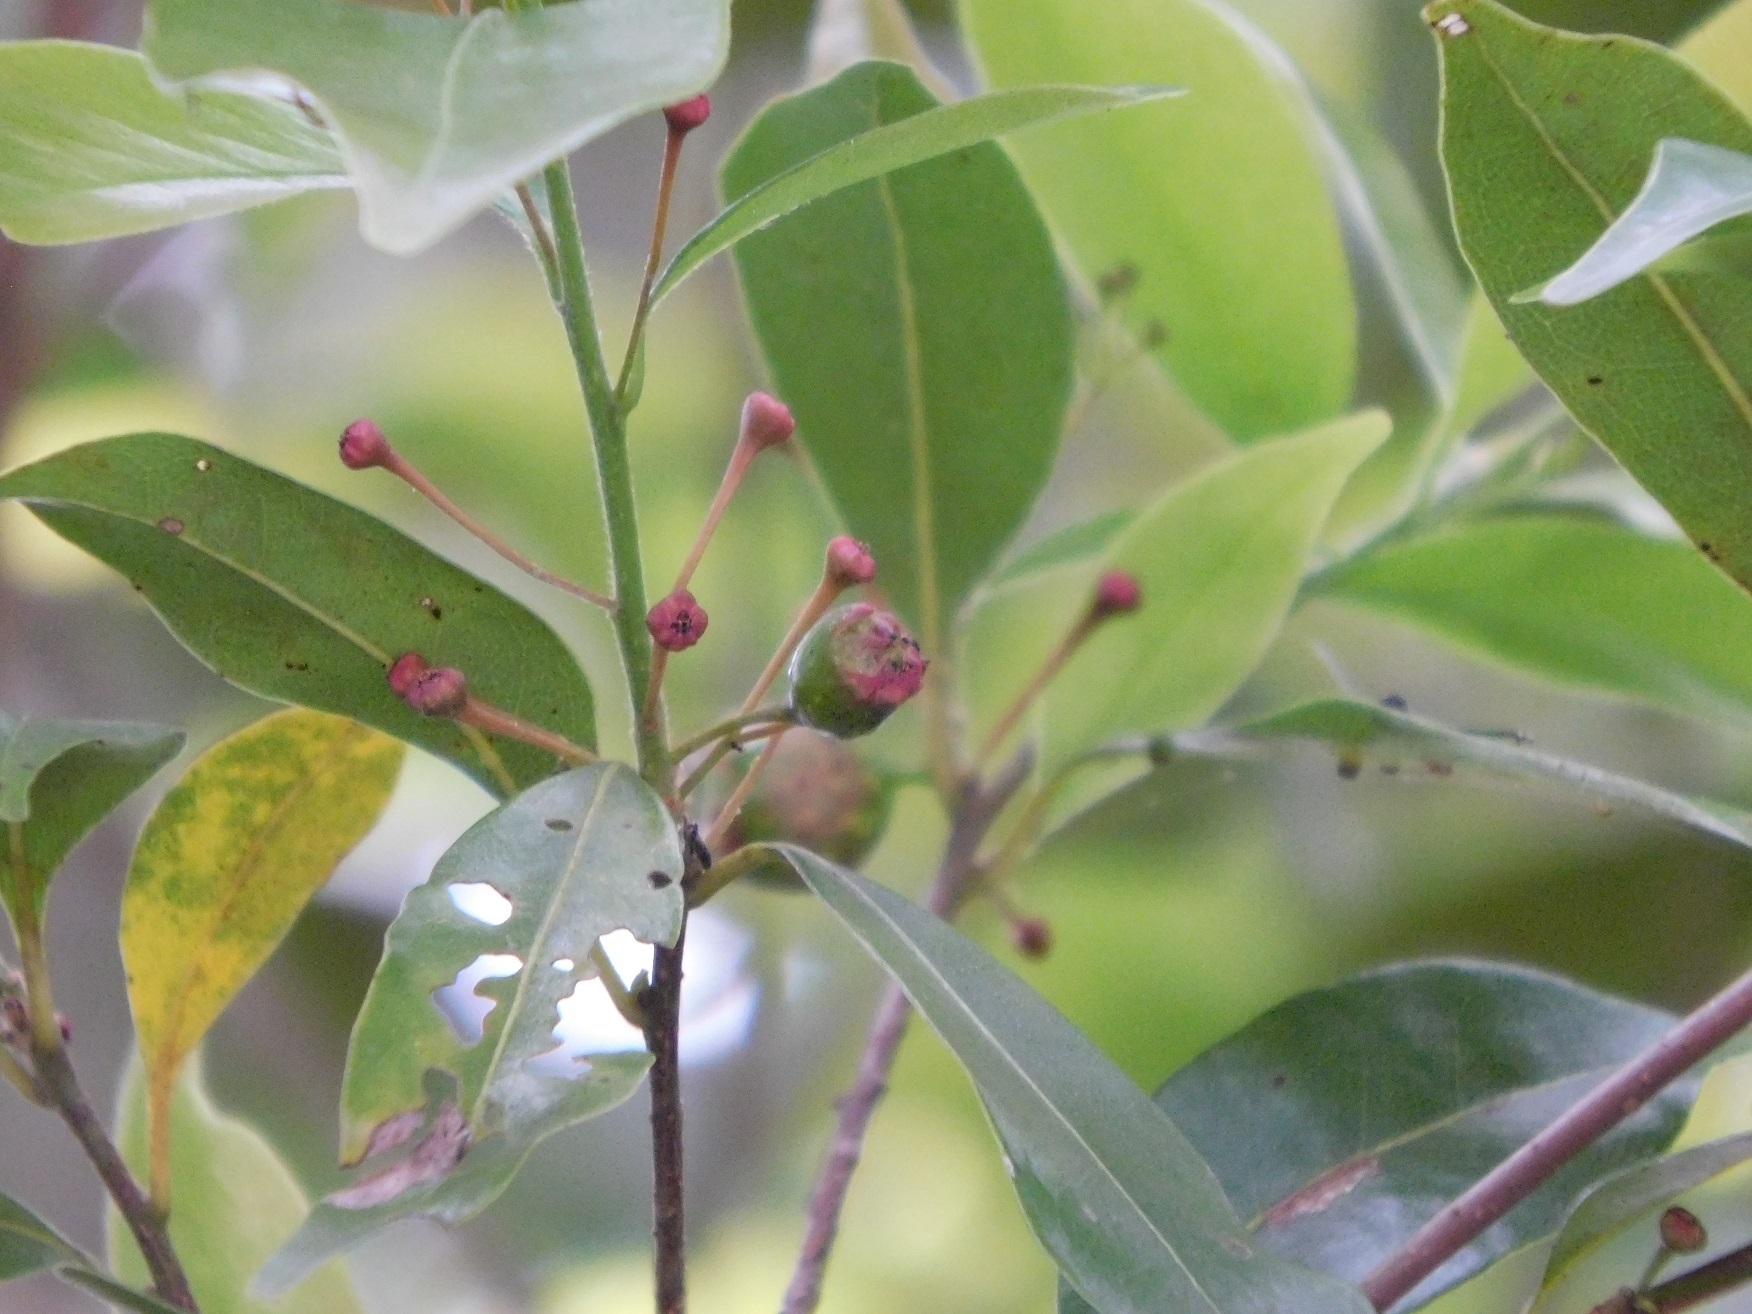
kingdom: Plantae
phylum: Tracheophyta
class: Magnoliopsida
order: Laurales
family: Lauraceae
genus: Licaria
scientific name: Licaria misantlae
